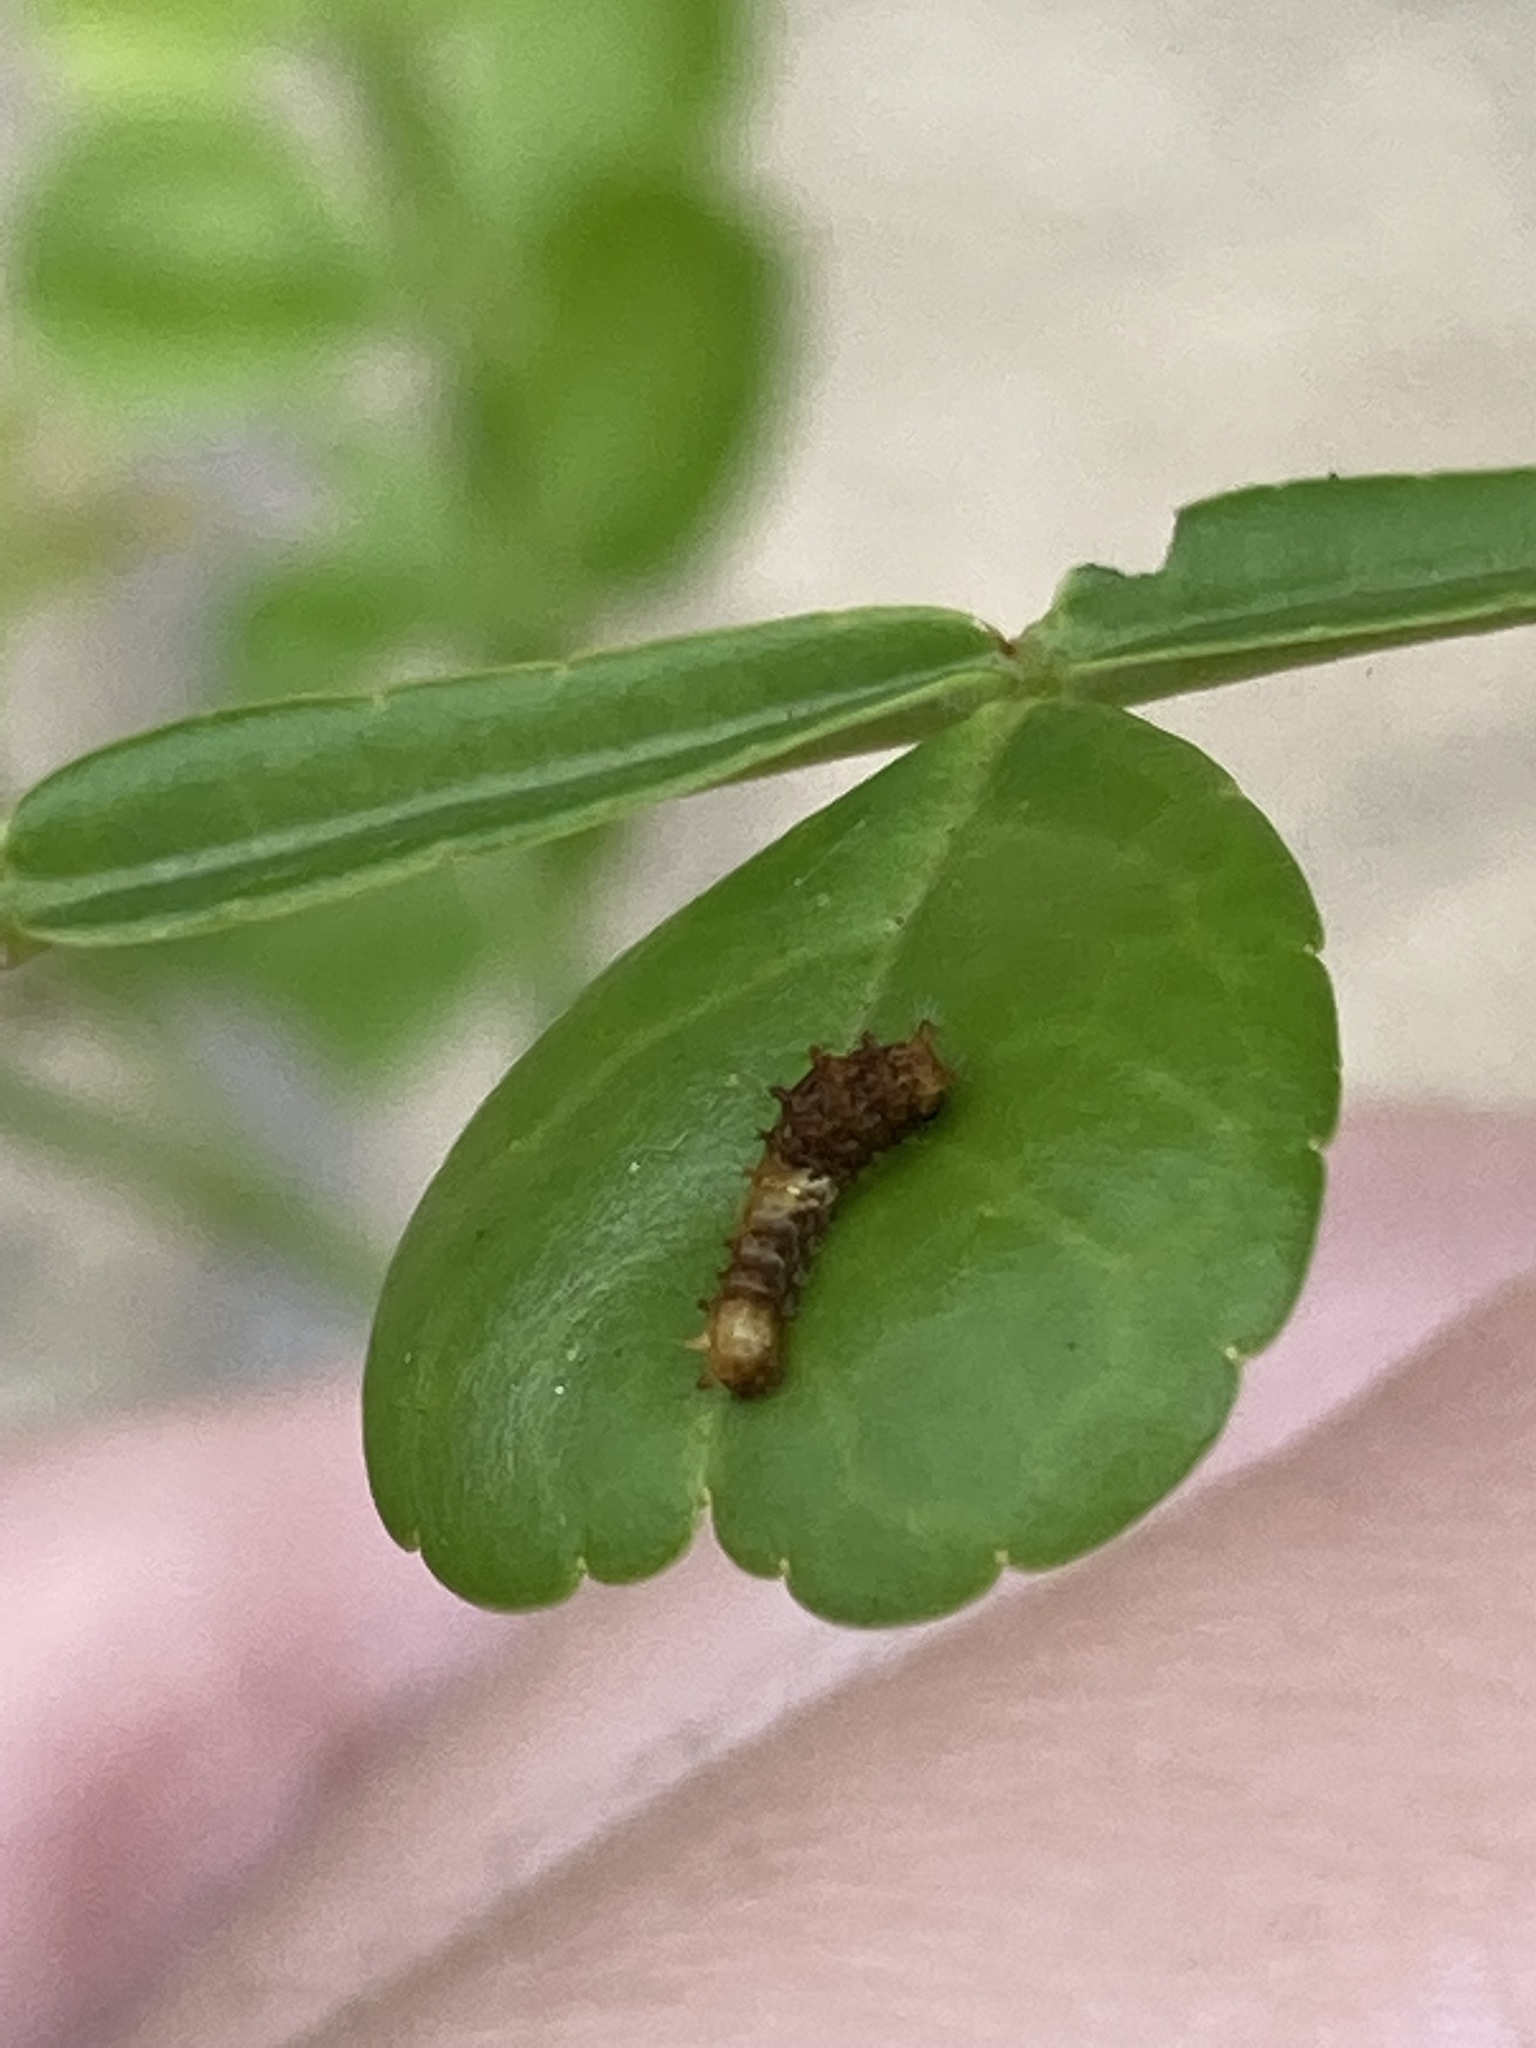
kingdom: Animalia
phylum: Arthropoda
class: Insecta
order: Lepidoptera
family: Papilionidae
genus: Papilio
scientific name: Papilio cresphontes
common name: Giant swallowtail
